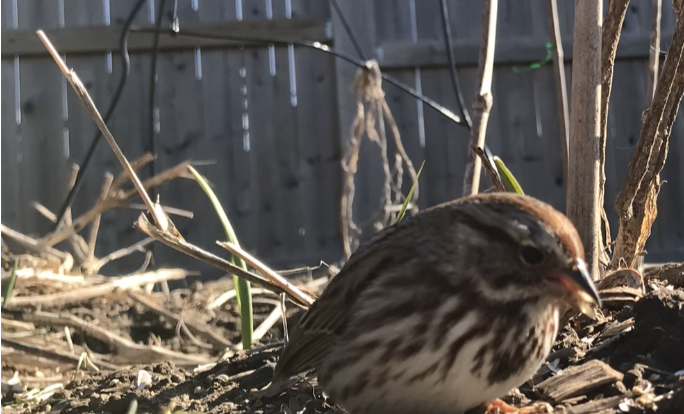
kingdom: Animalia
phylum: Chordata
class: Aves
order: Passeriformes
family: Passerellidae
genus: Melospiza
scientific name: Melospiza melodia
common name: Song sparrow
